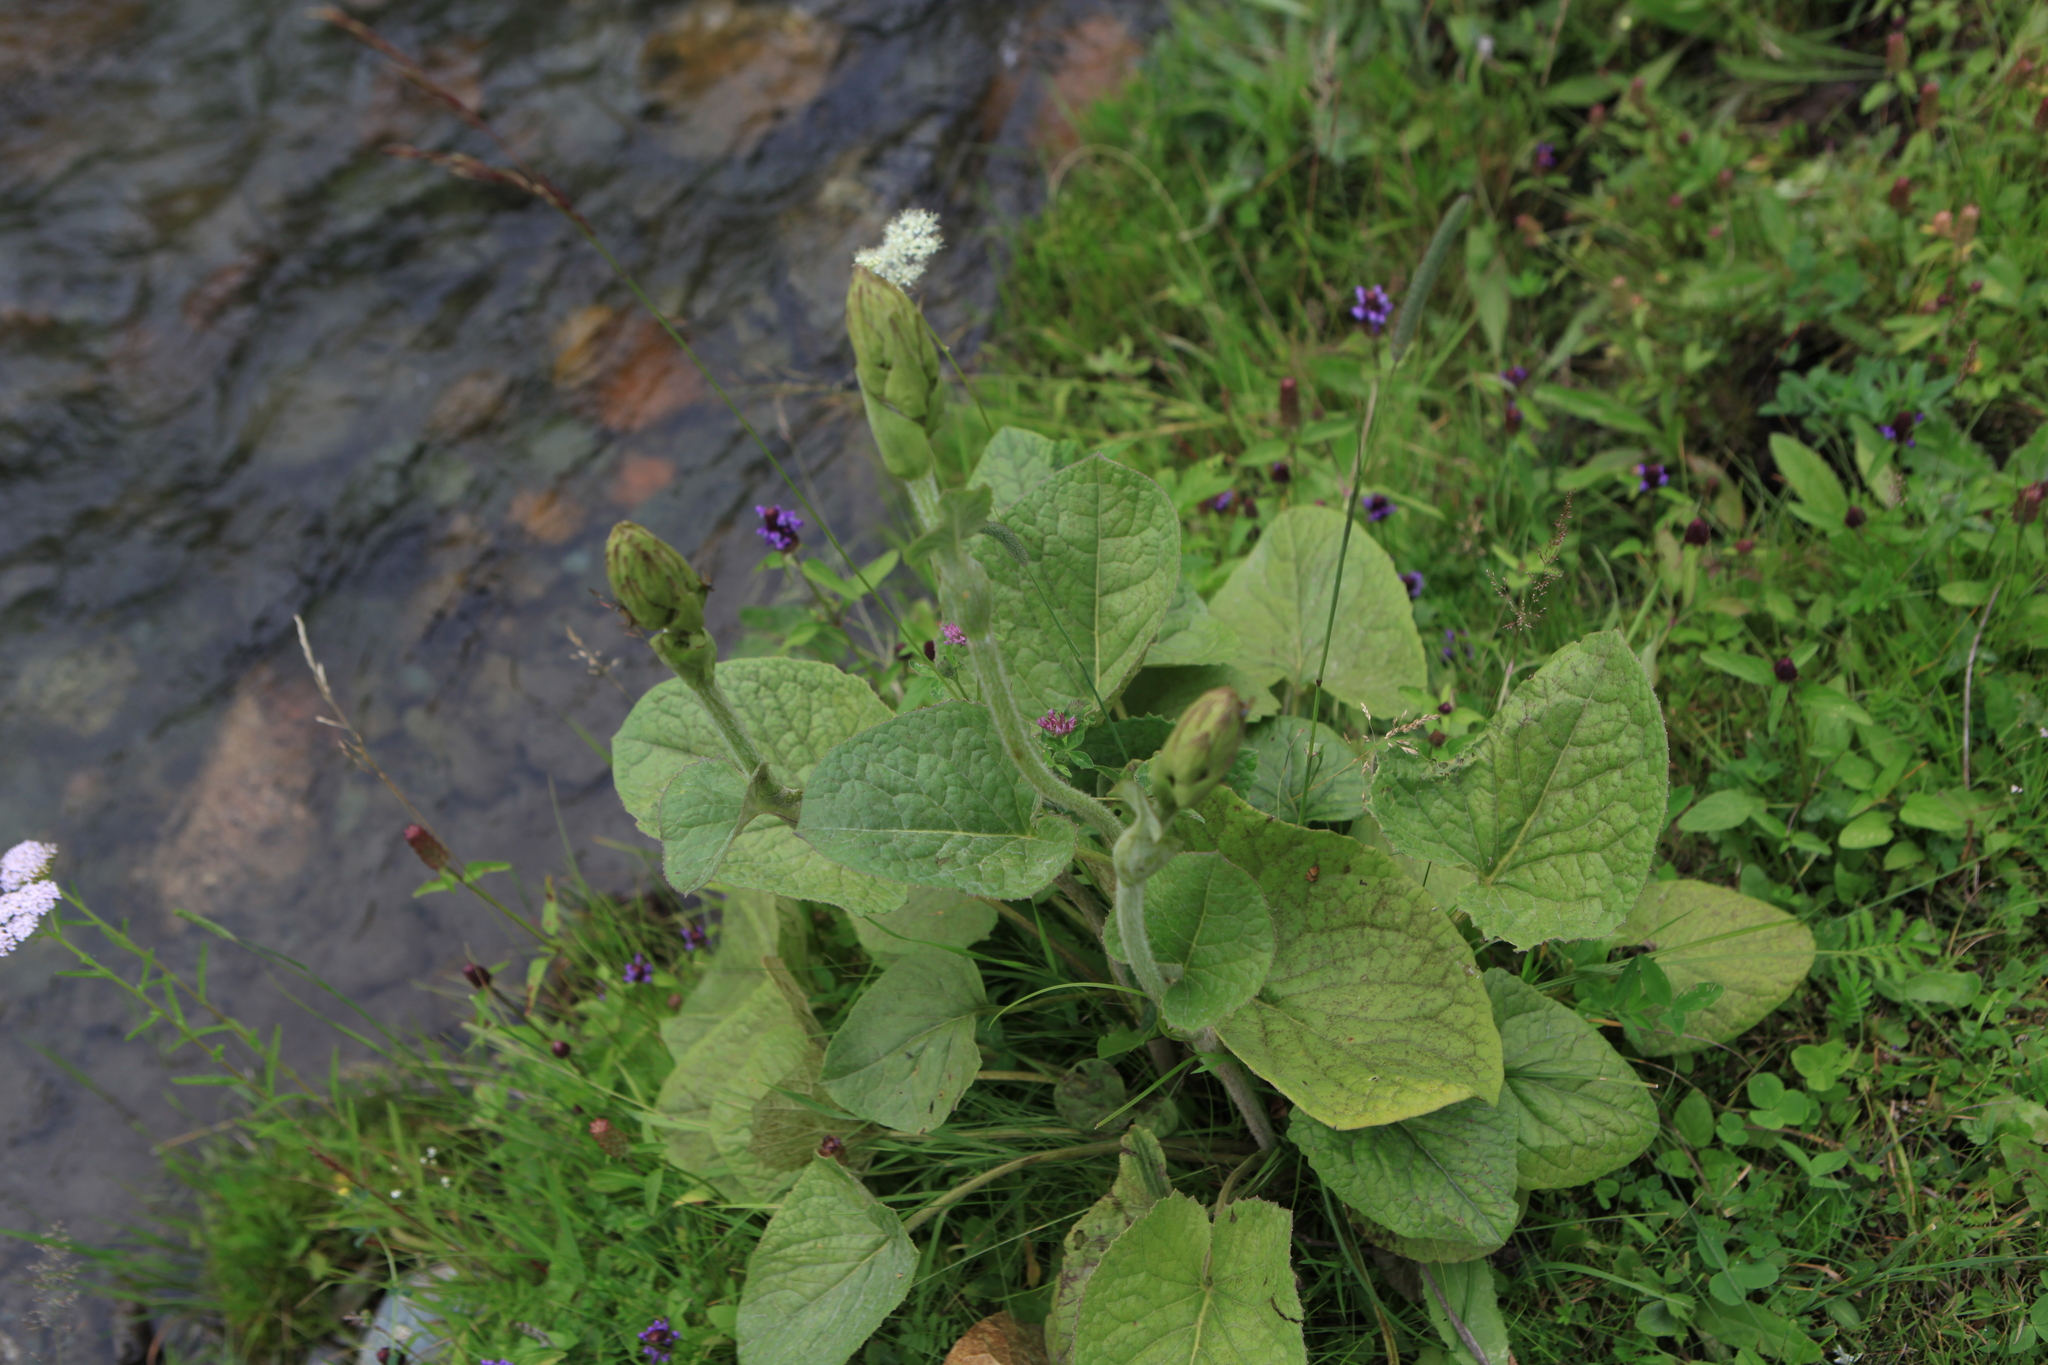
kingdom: Plantae
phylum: Tracheophyta
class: Magnoliopsida
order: Asterales
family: Asteraceae
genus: Ligularia
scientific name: Ligularia sibirica
